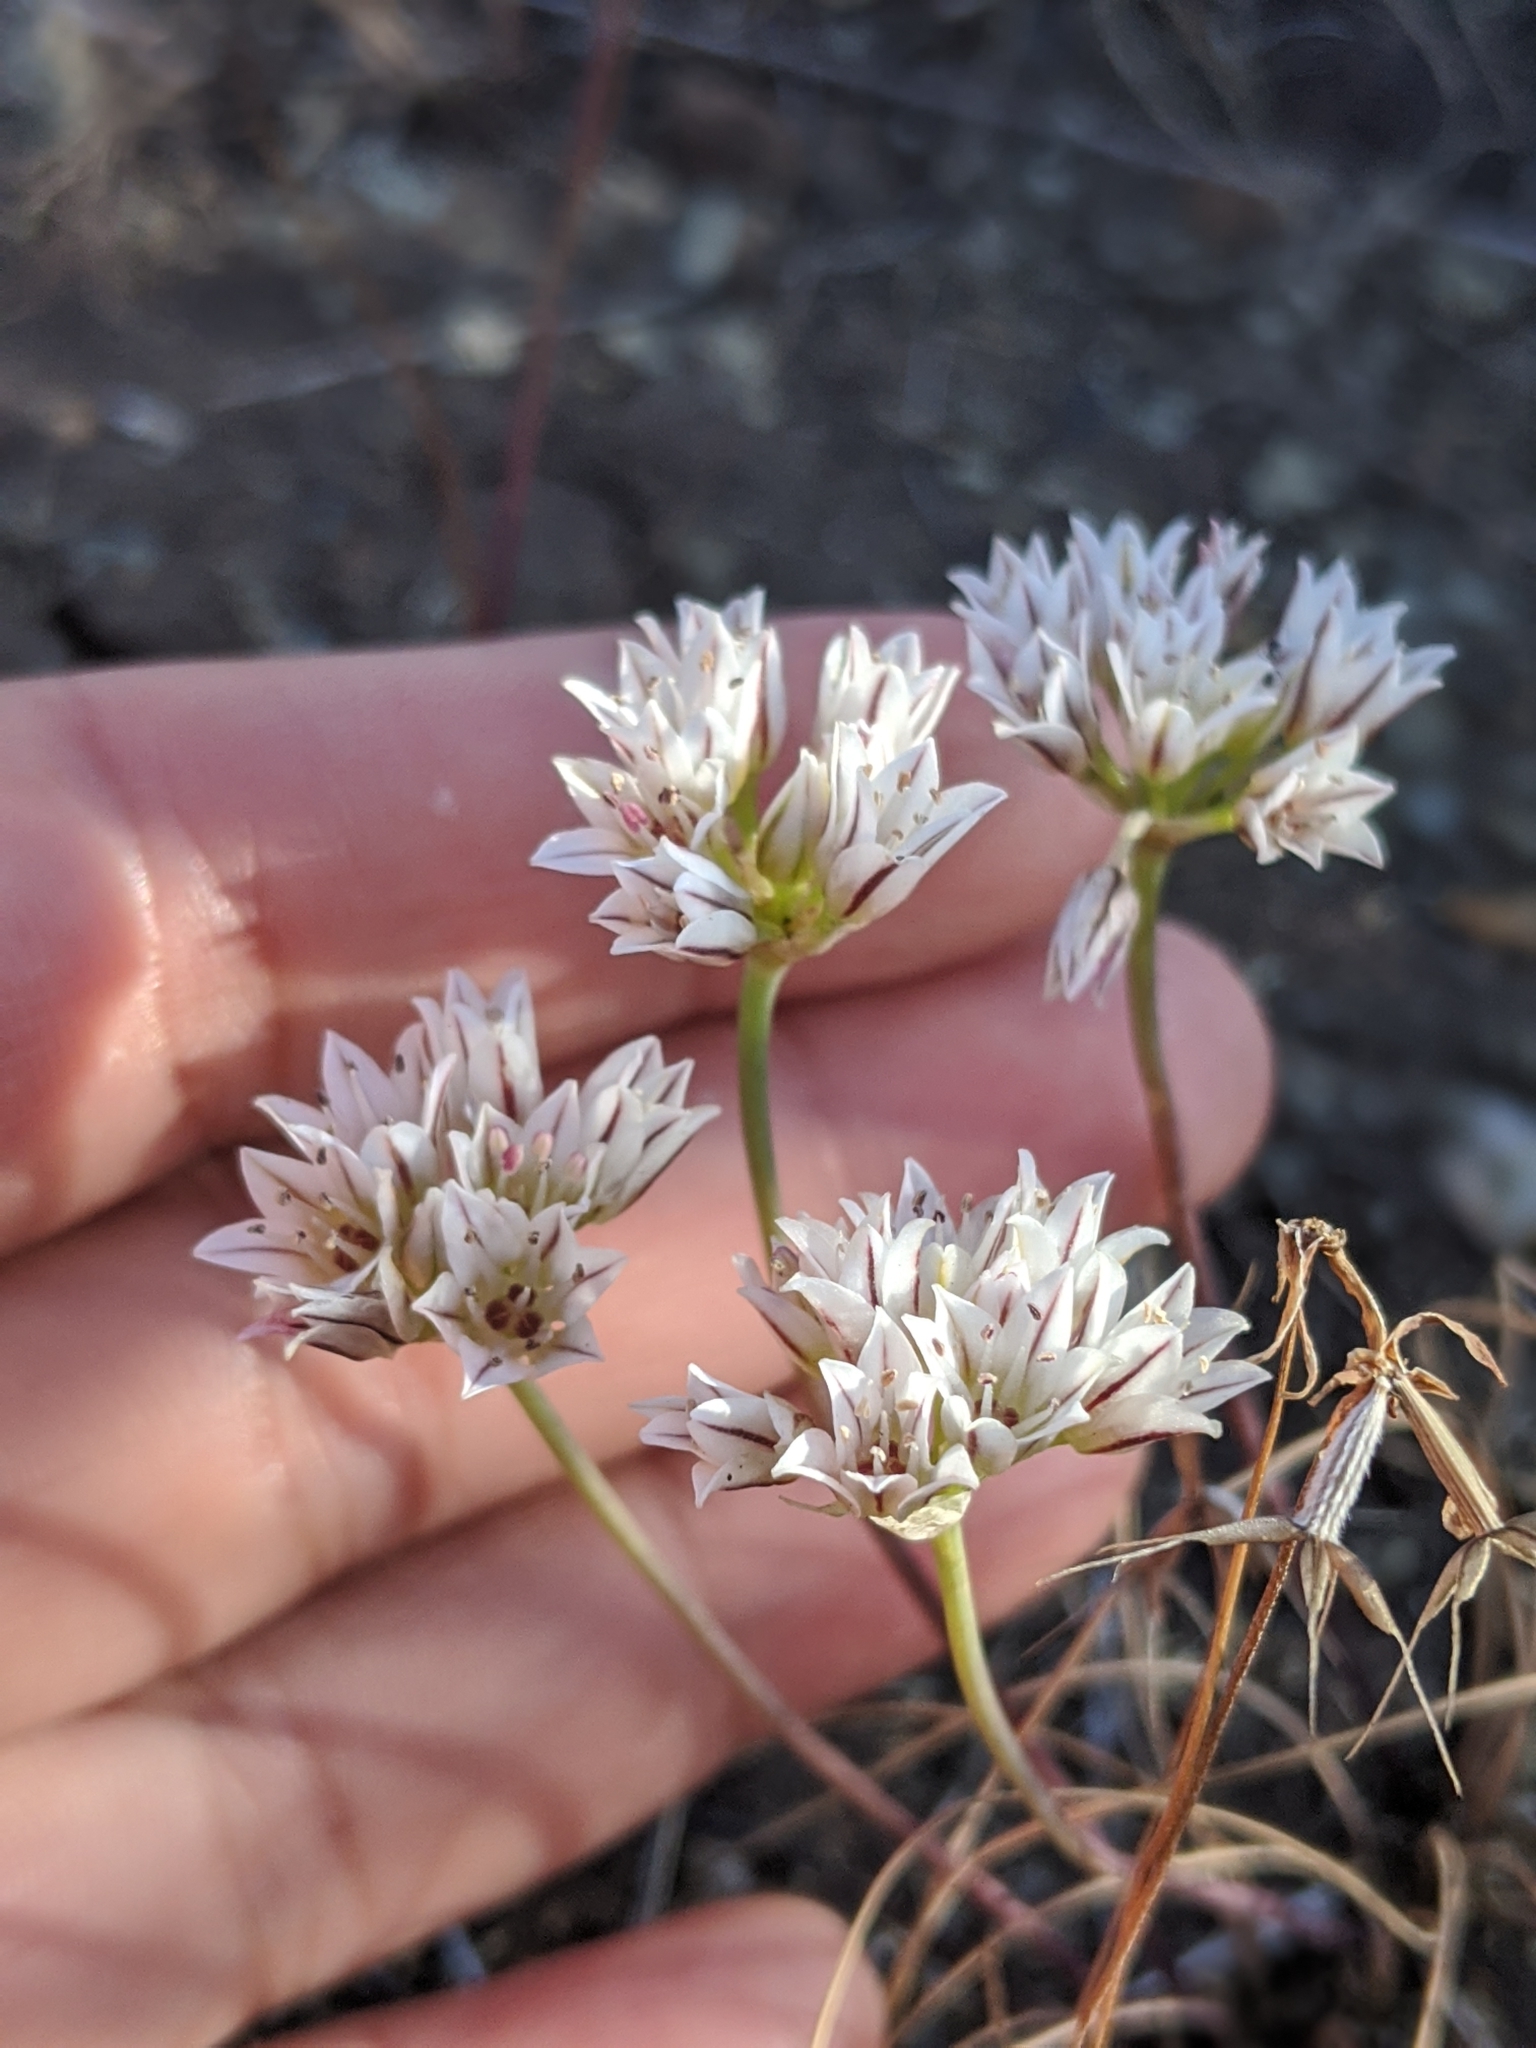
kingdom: Plantae
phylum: Tracheophyta
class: Liliopsida
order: Asparagales
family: Amaryllidaceae
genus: Allium
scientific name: Allium lacunosum
